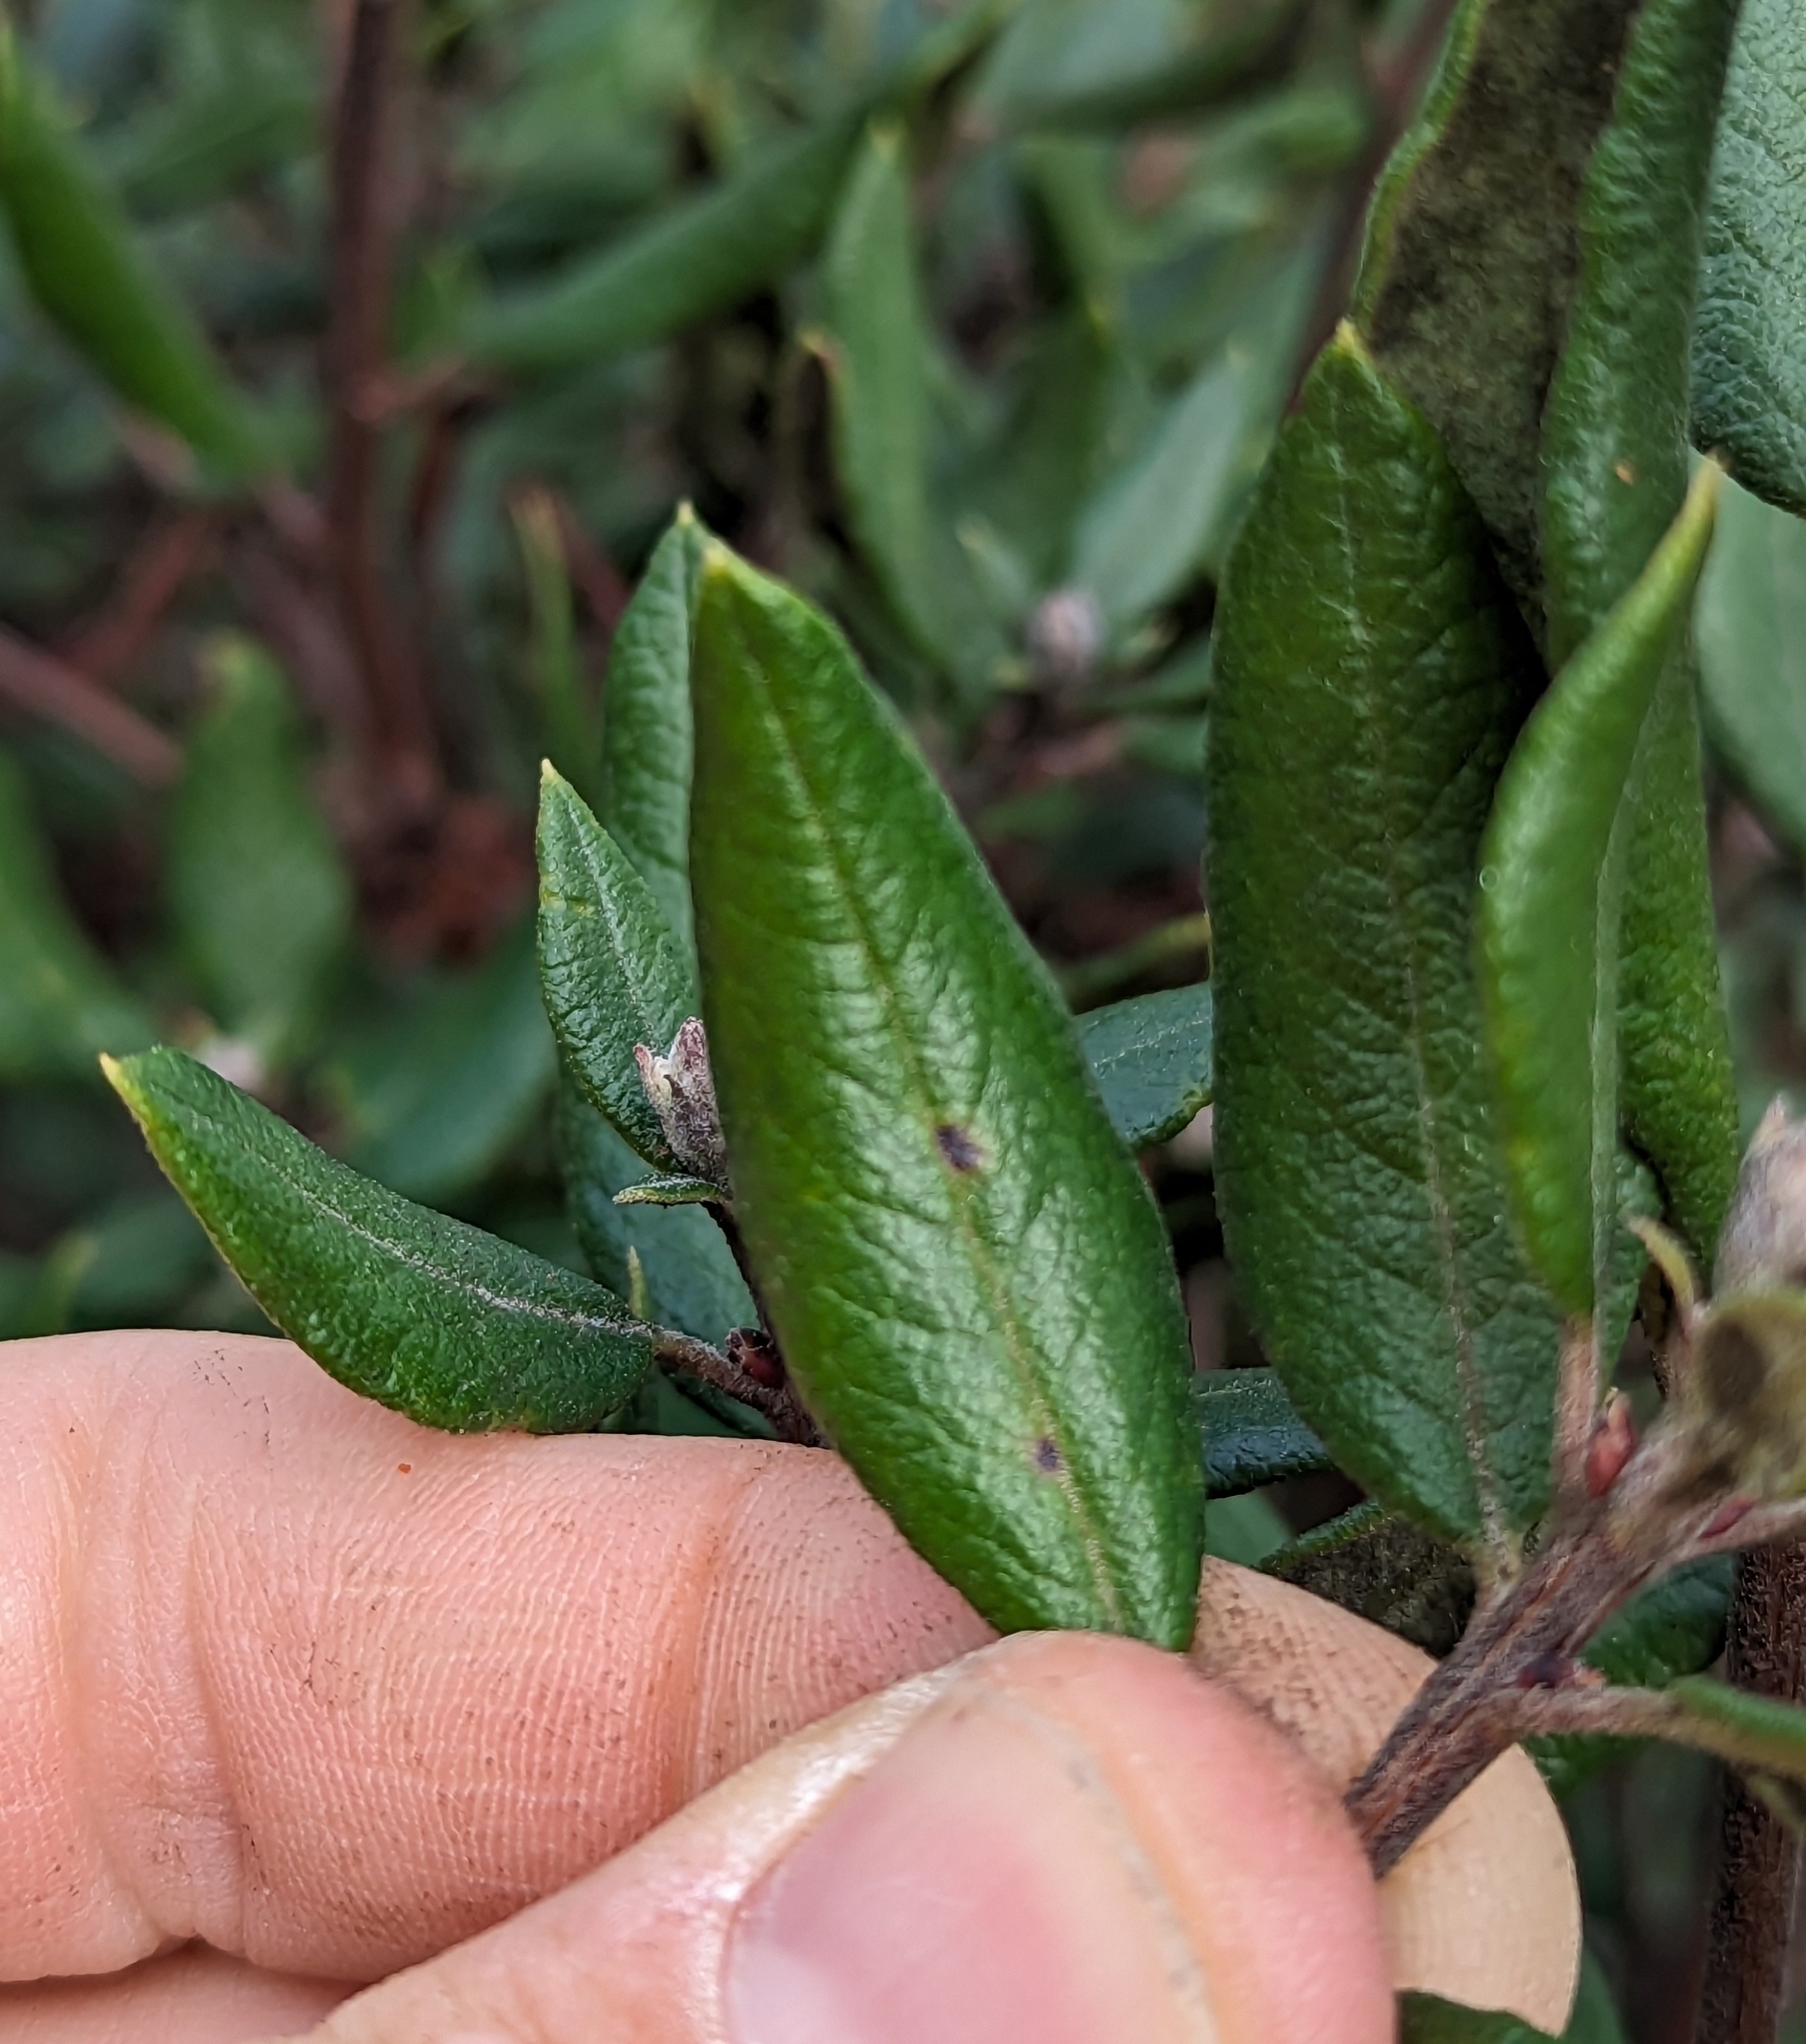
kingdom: Plantae
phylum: Tracheophyta
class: Magnoliopsida
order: Ericales
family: Ericaceae
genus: Arctostaphylos
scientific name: Arctostaphylos bicolor
